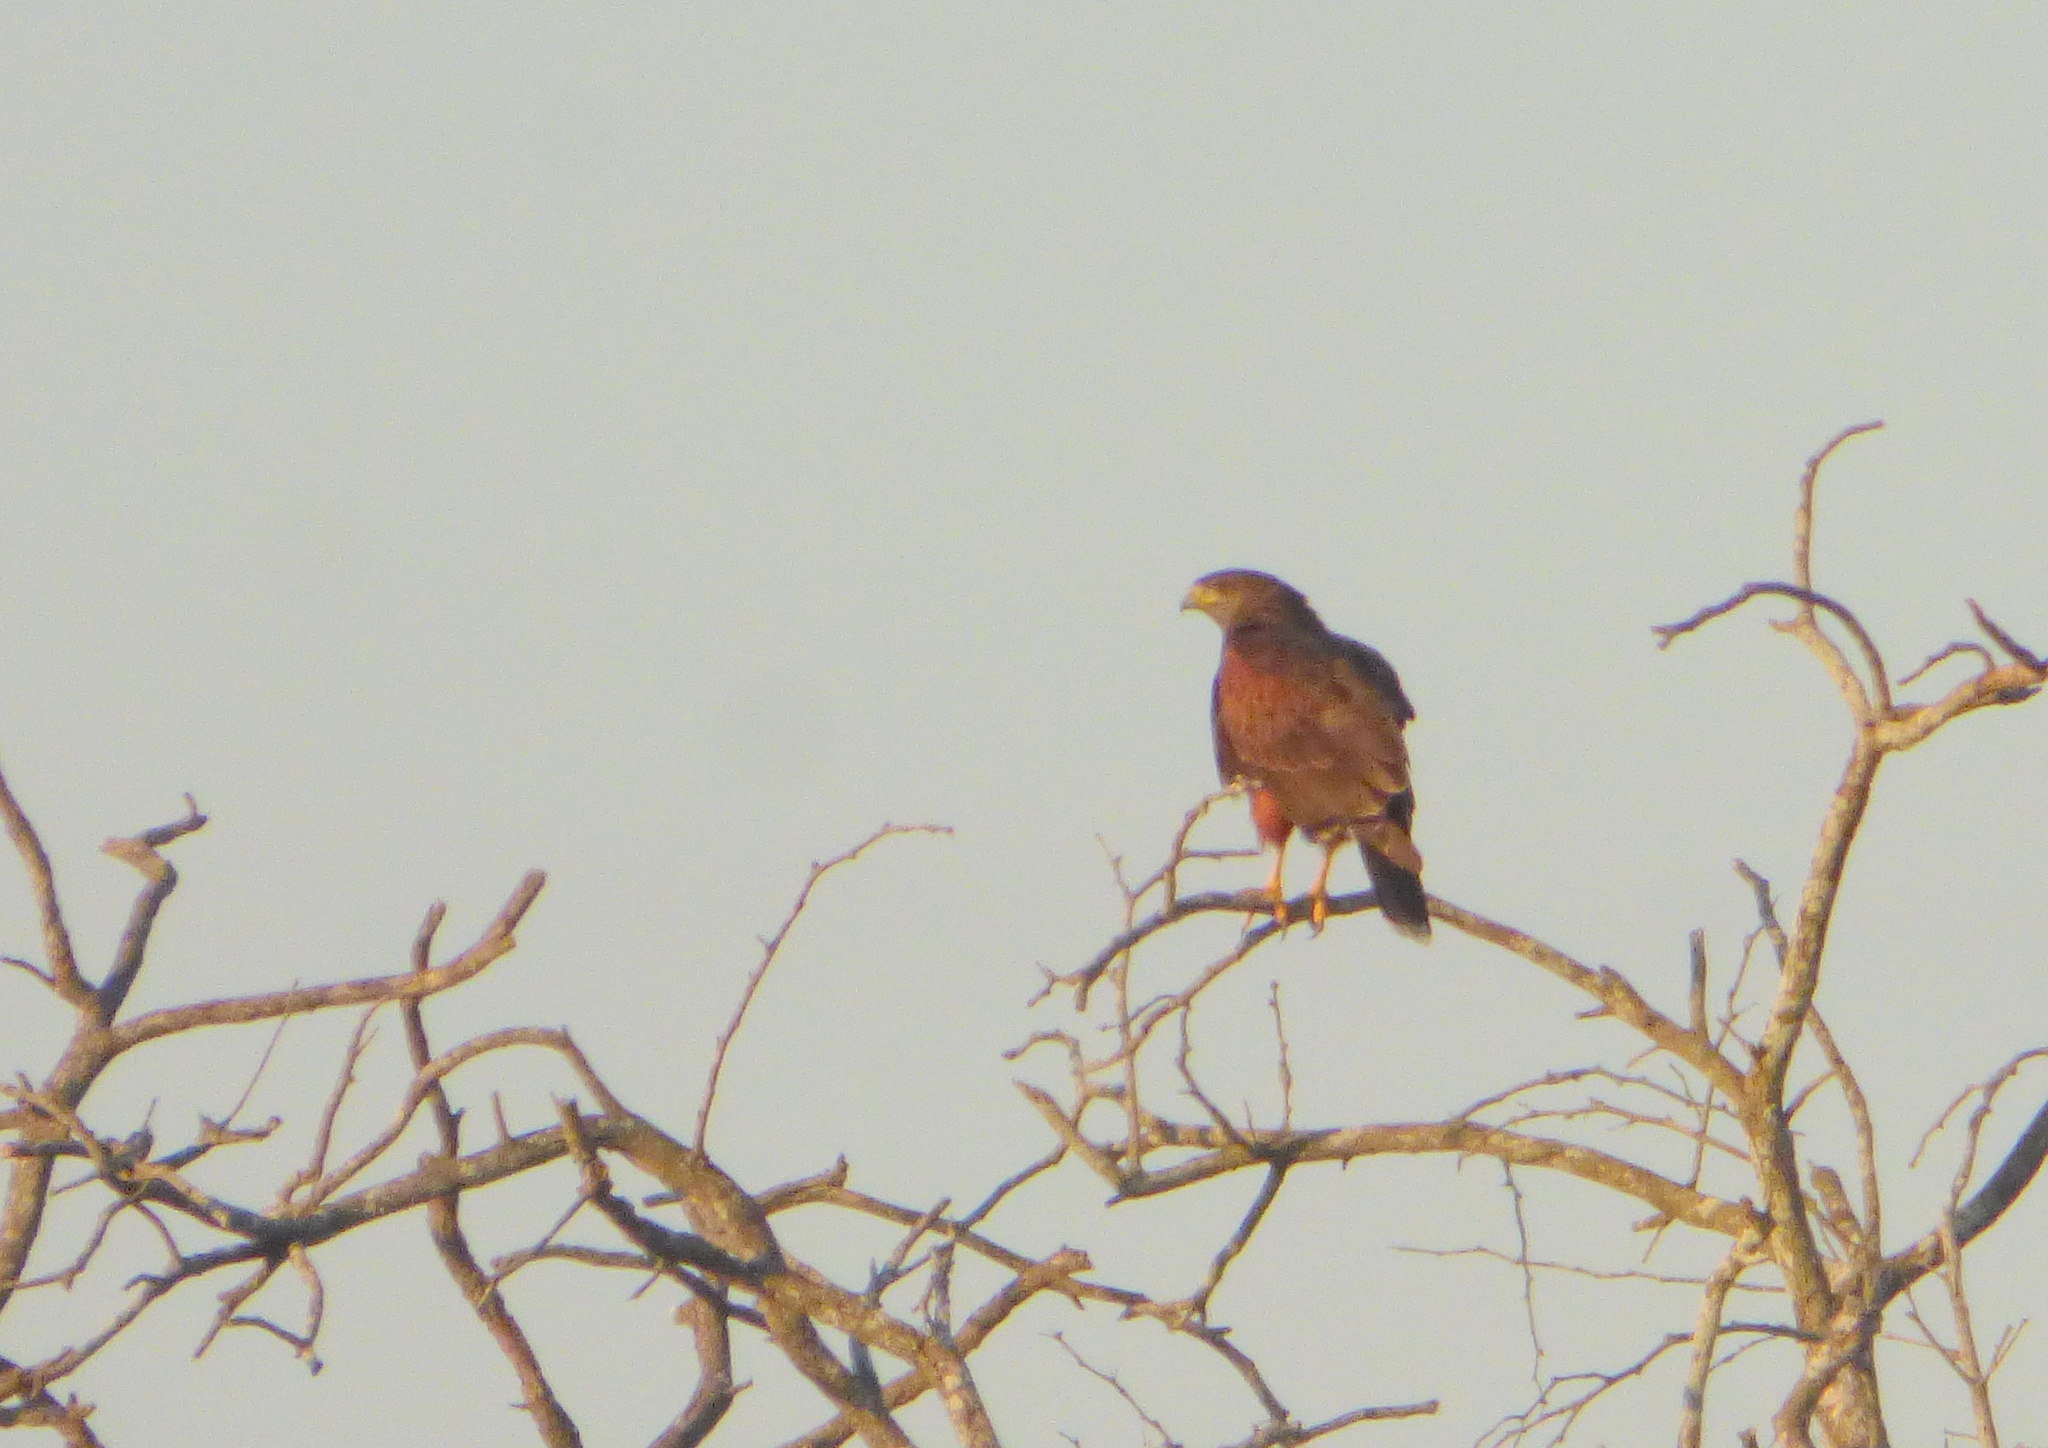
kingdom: Animalia
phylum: Chordata
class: Aves
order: Accipitriformes
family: Accipitridae
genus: Parabuteo
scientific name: Parabuteo unicinctus
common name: Harris's hawk
